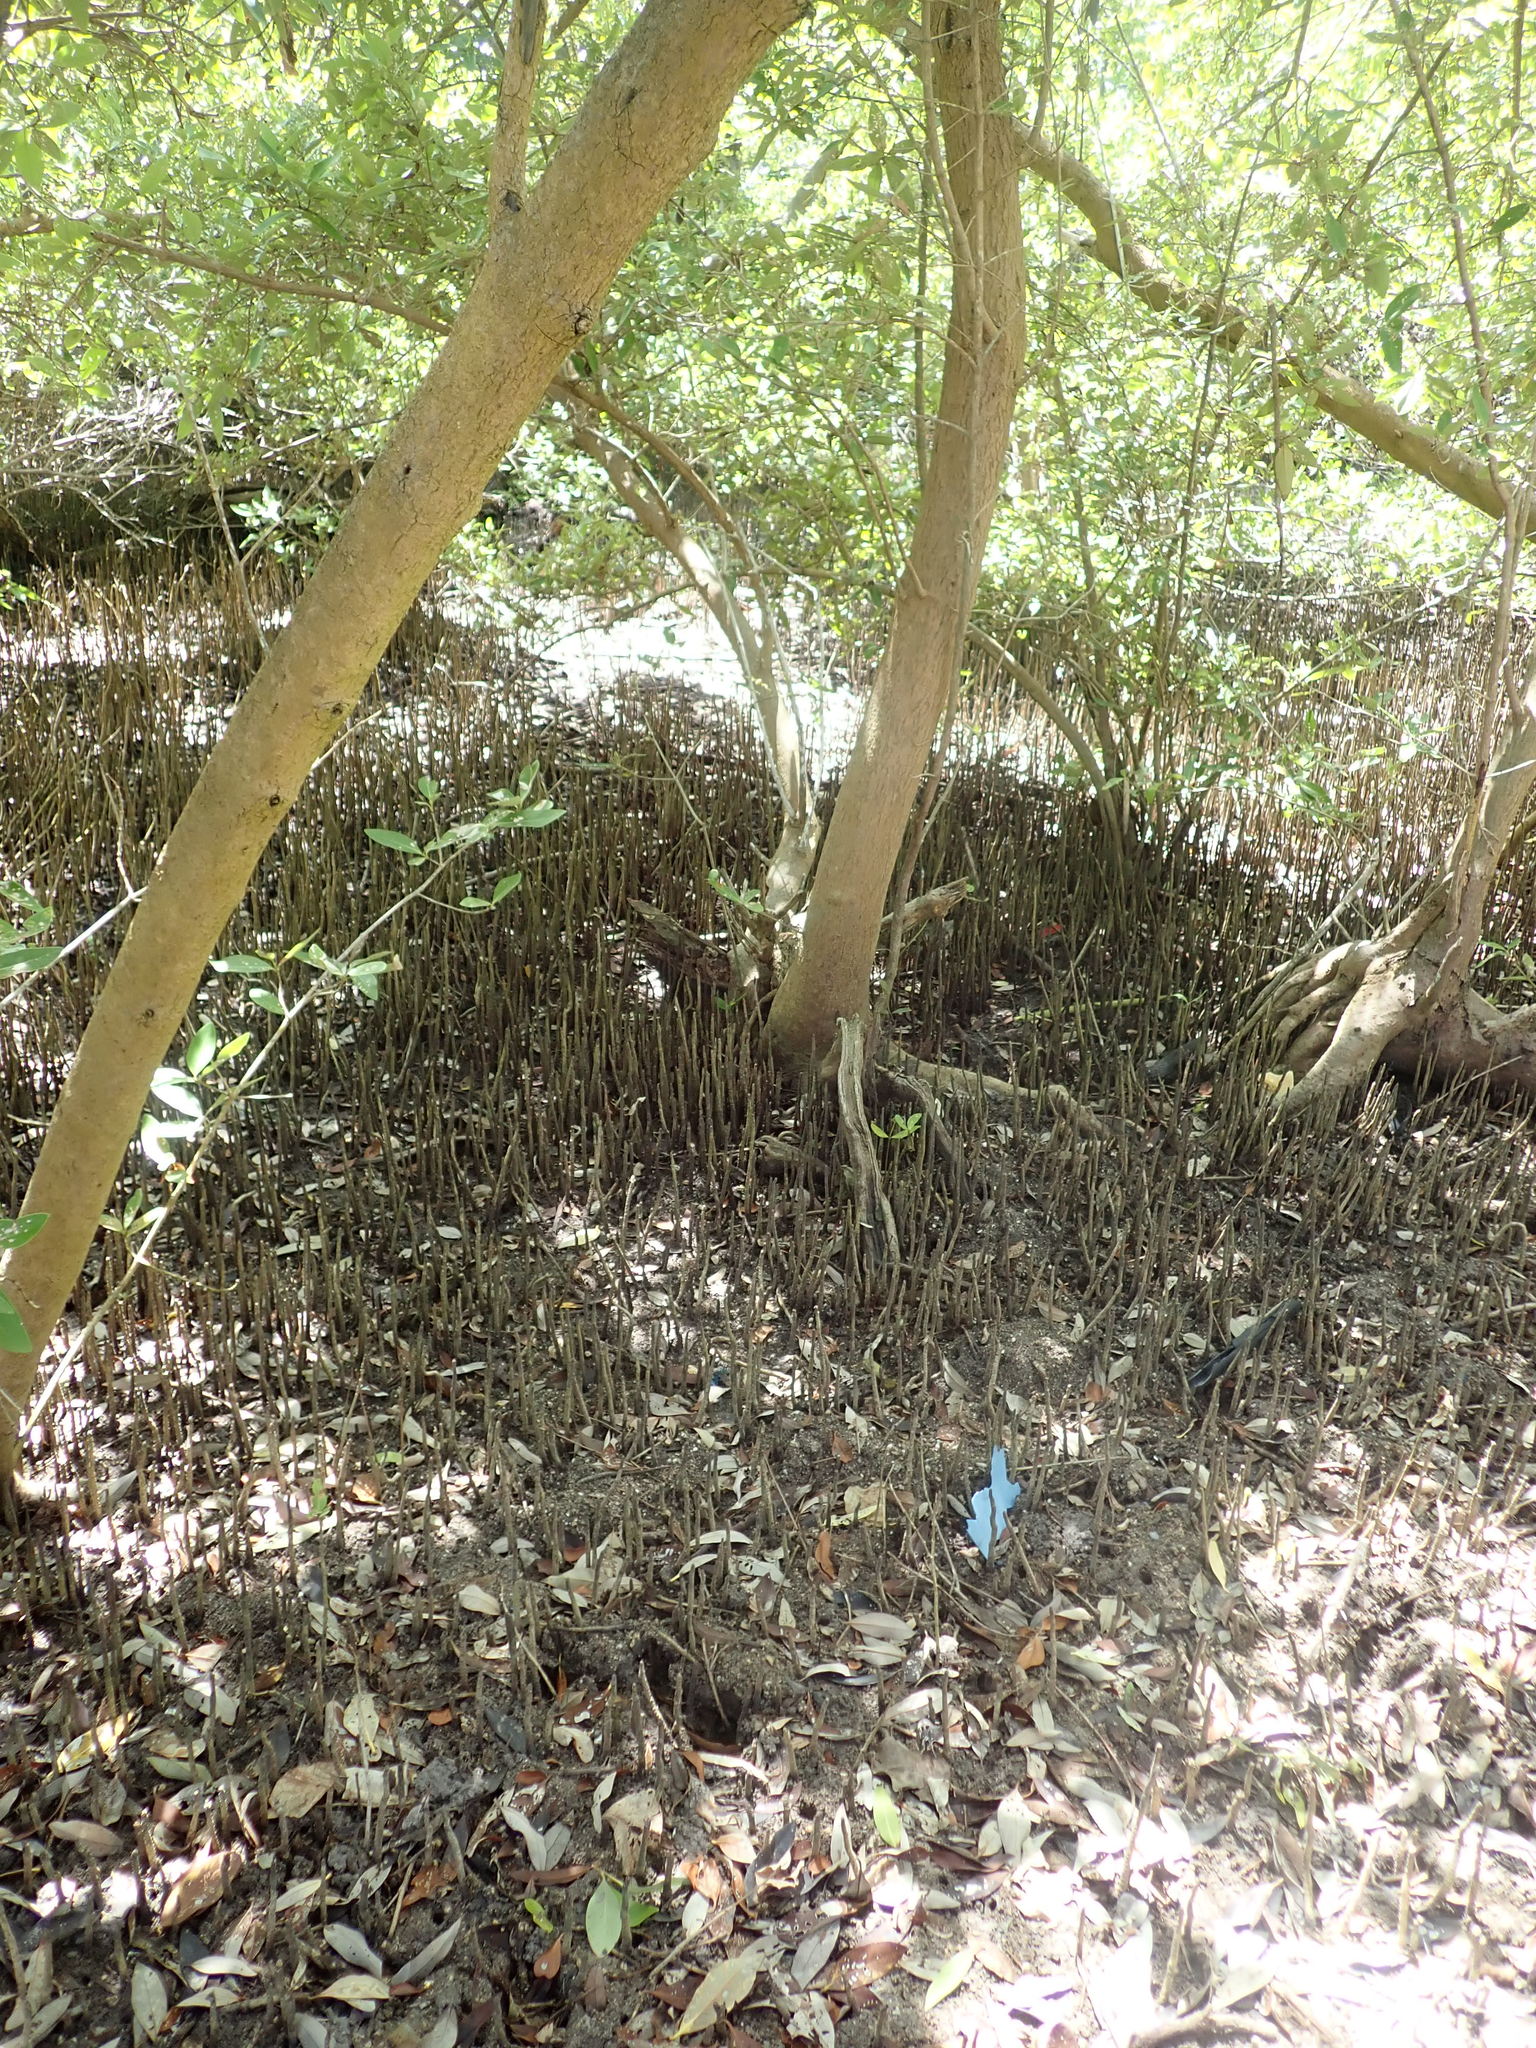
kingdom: Plantae
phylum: Tracheophyta
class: Magnoliopsida
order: Lamiales
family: Acanthaceae
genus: Avicennia
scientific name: Avicennia germinans
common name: Black mangrove
